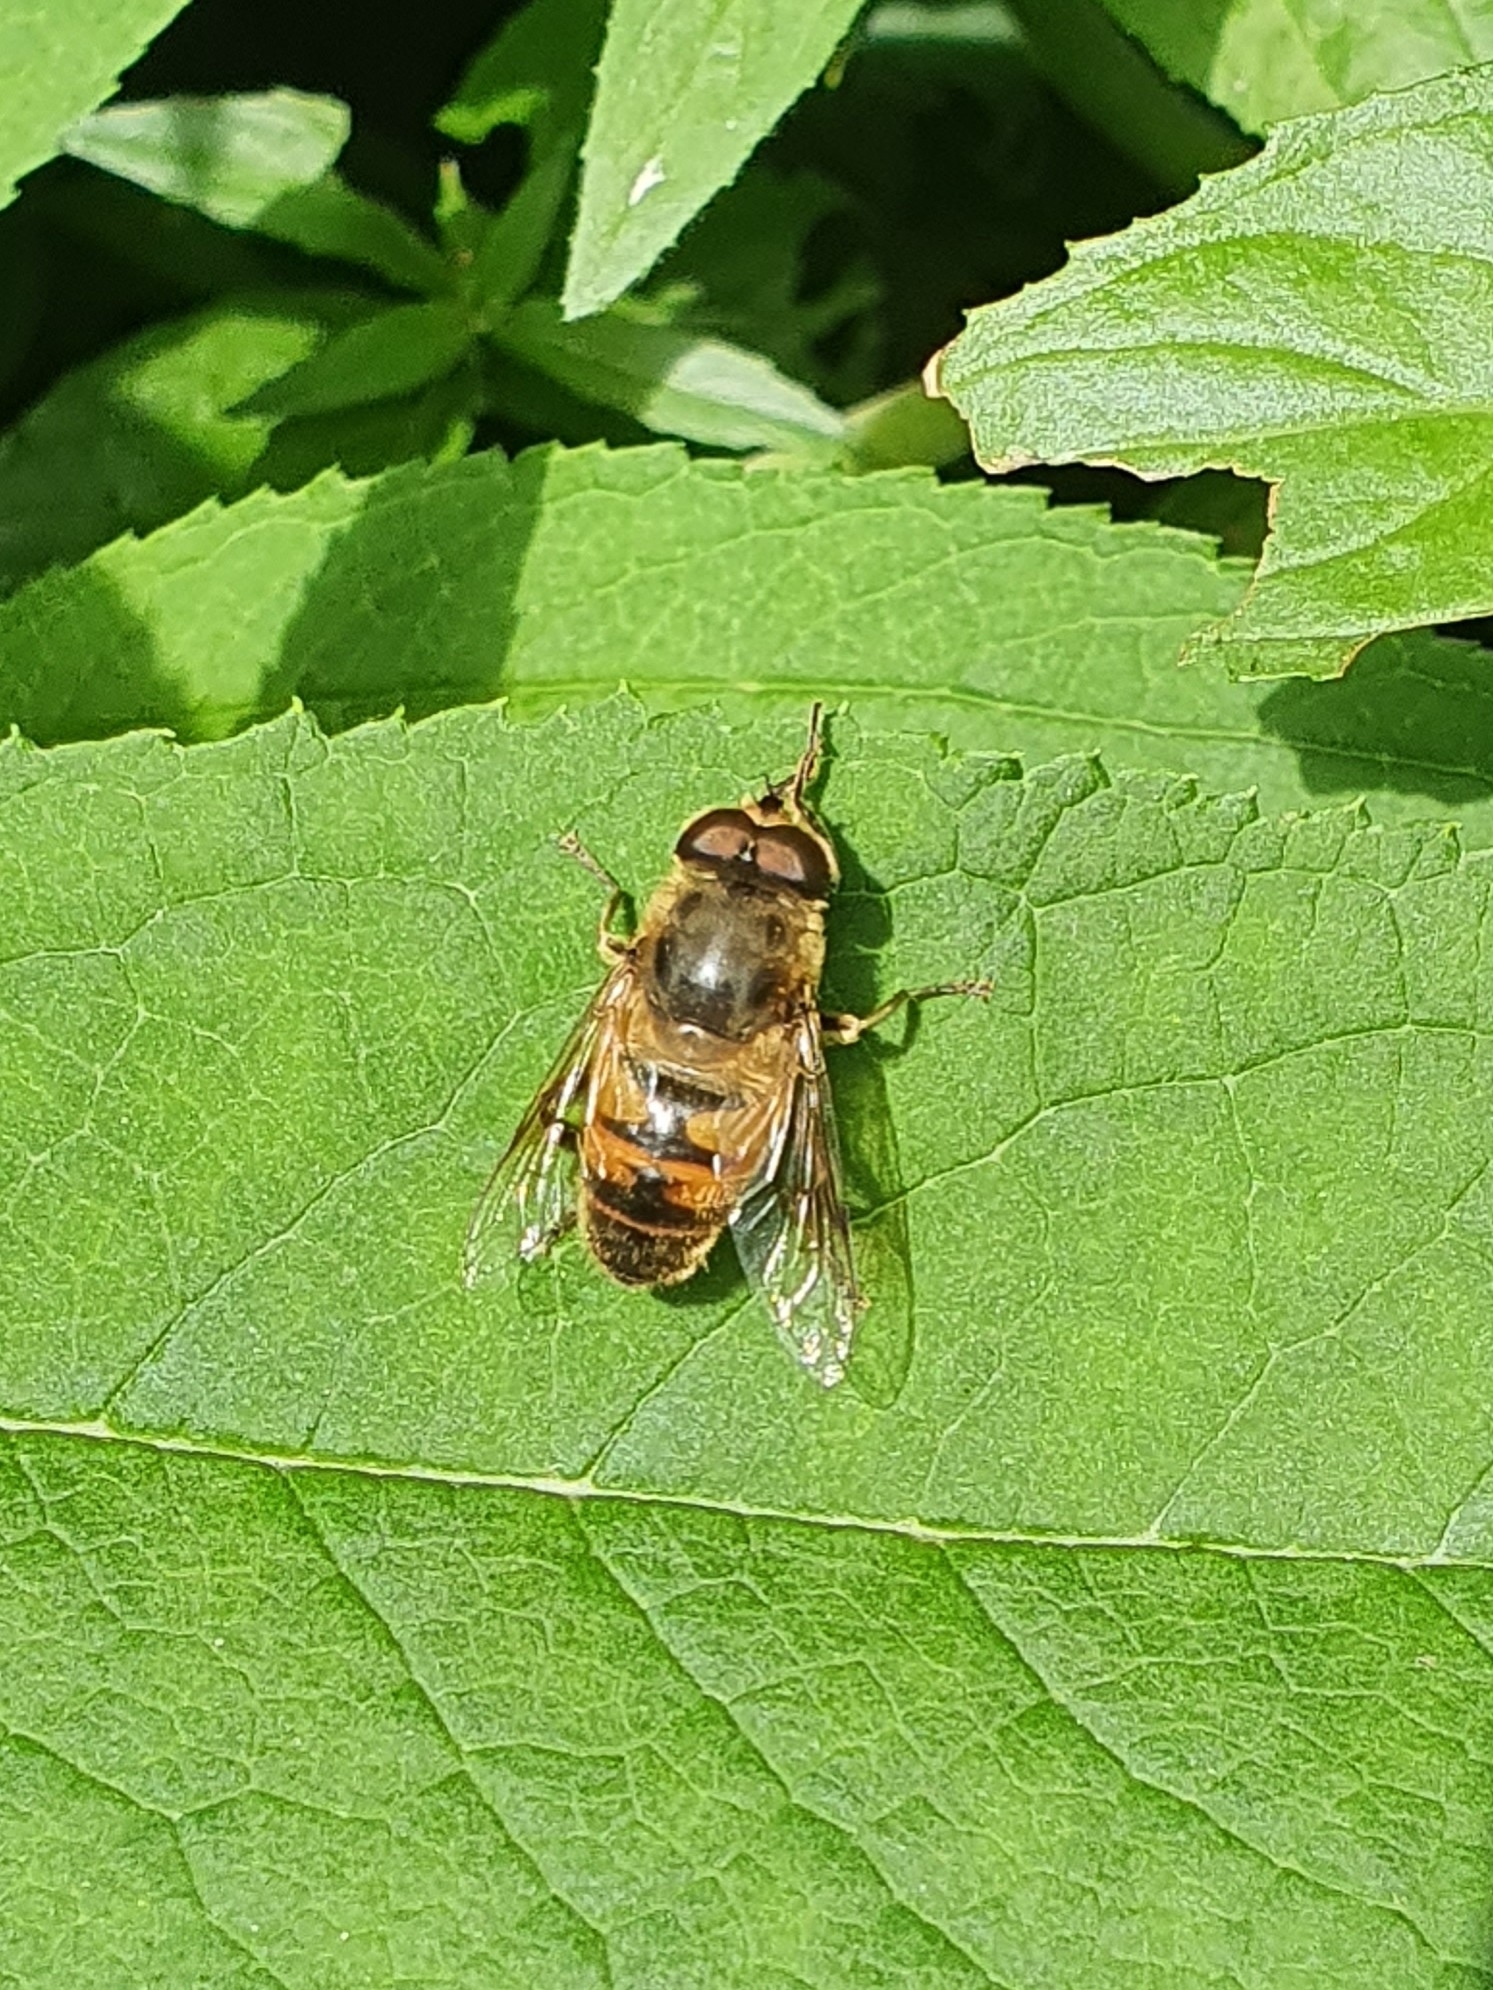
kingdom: Animalia
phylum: Arthropoda
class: Insecta
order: Diptera
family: Syrphidae
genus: Eristalis
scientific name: Eristalis tenax
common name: Drone fly
